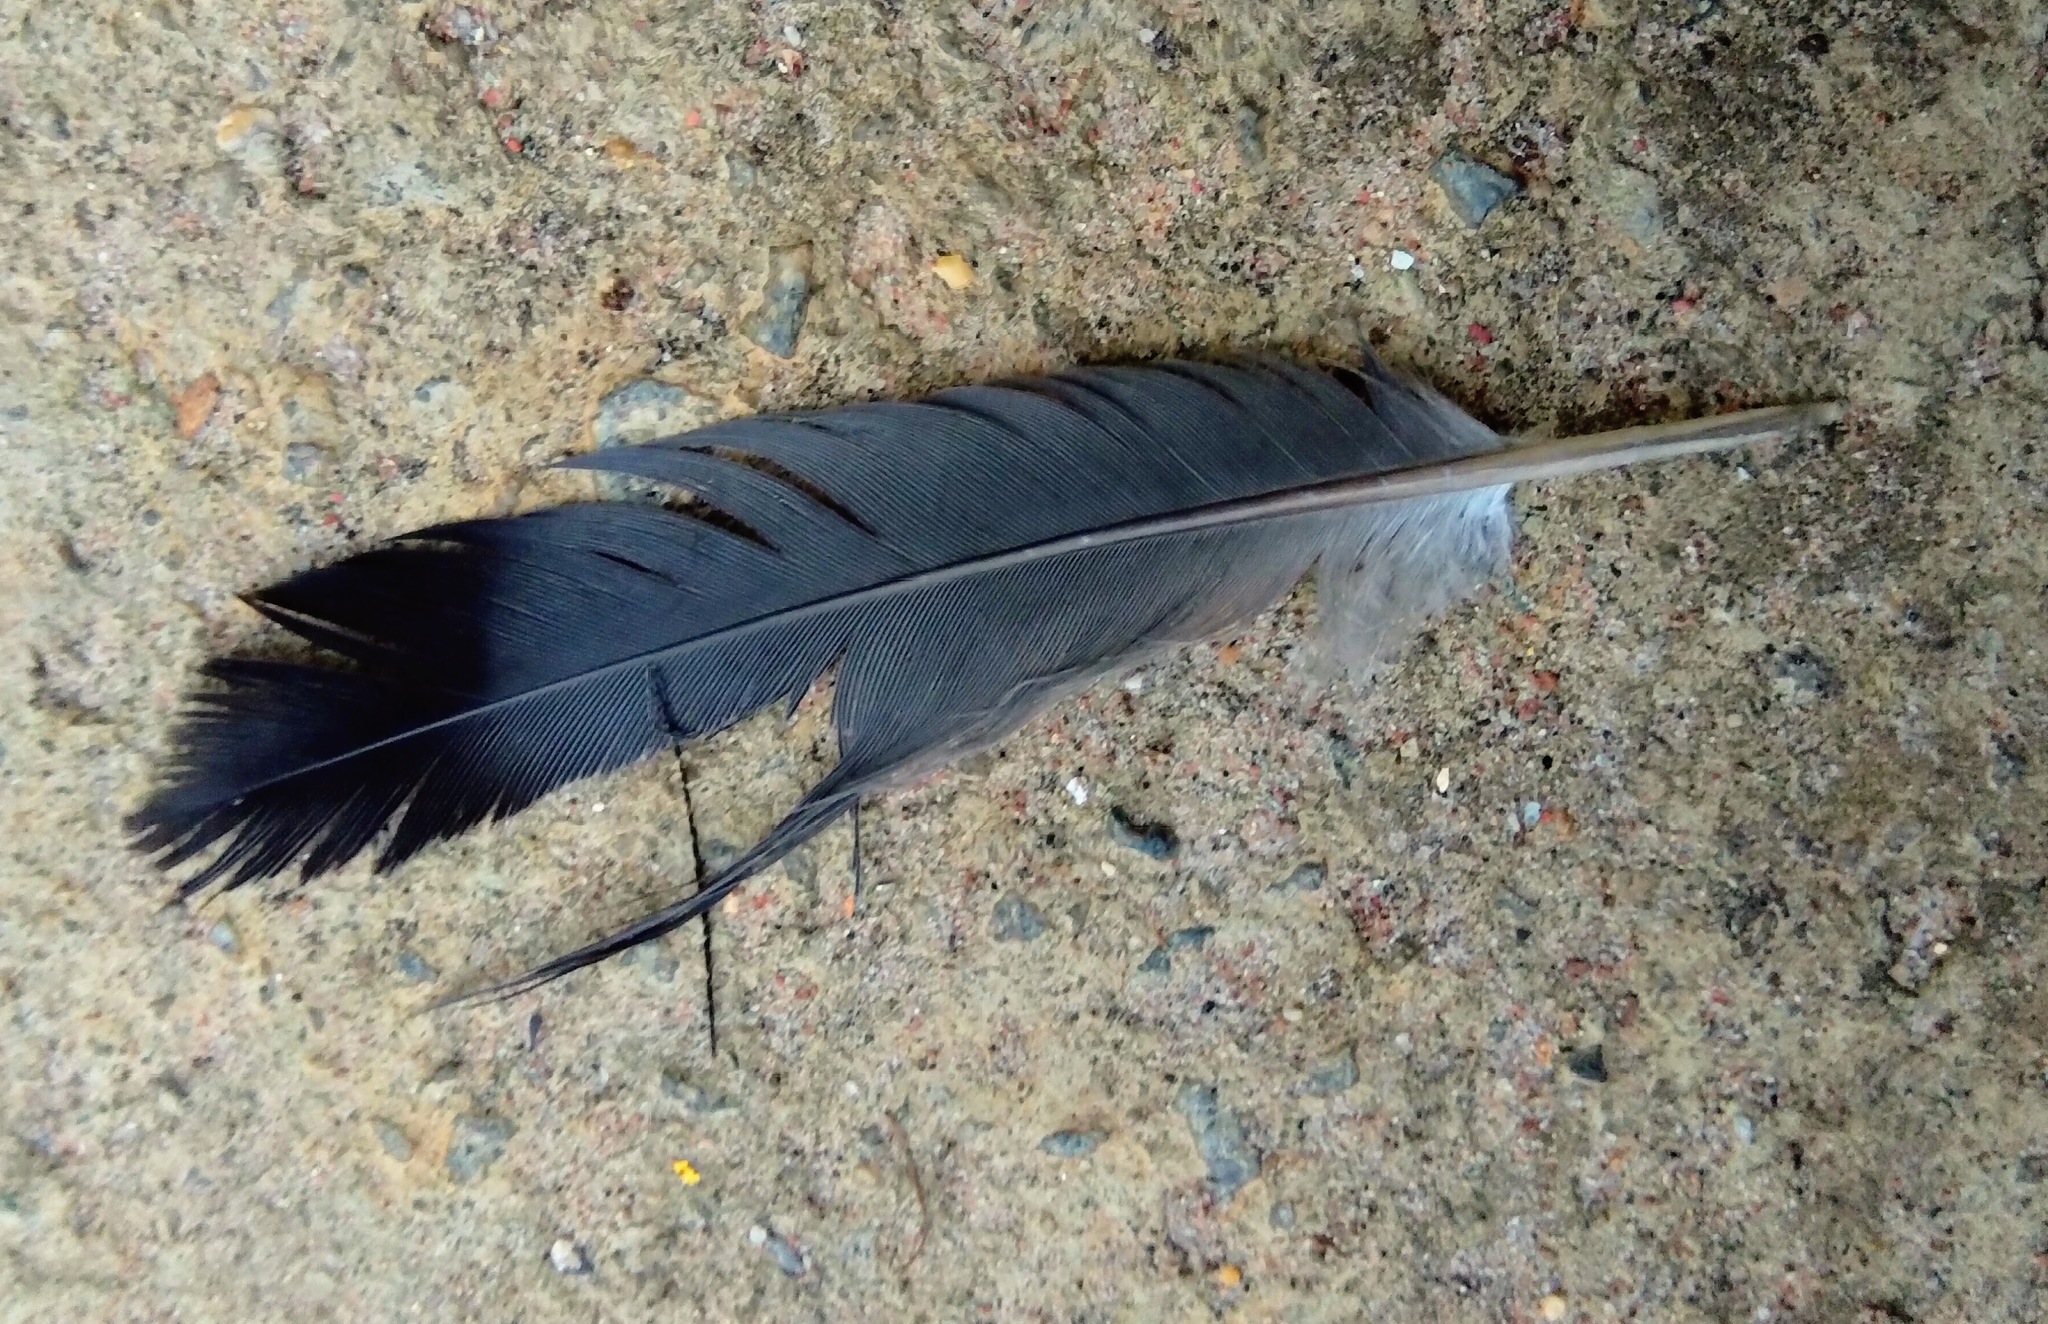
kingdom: Animalia
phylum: Chordata
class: Aves
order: Columbiformes
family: Columbidae
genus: Columba
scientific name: Columba livia
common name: Rock pigeon
